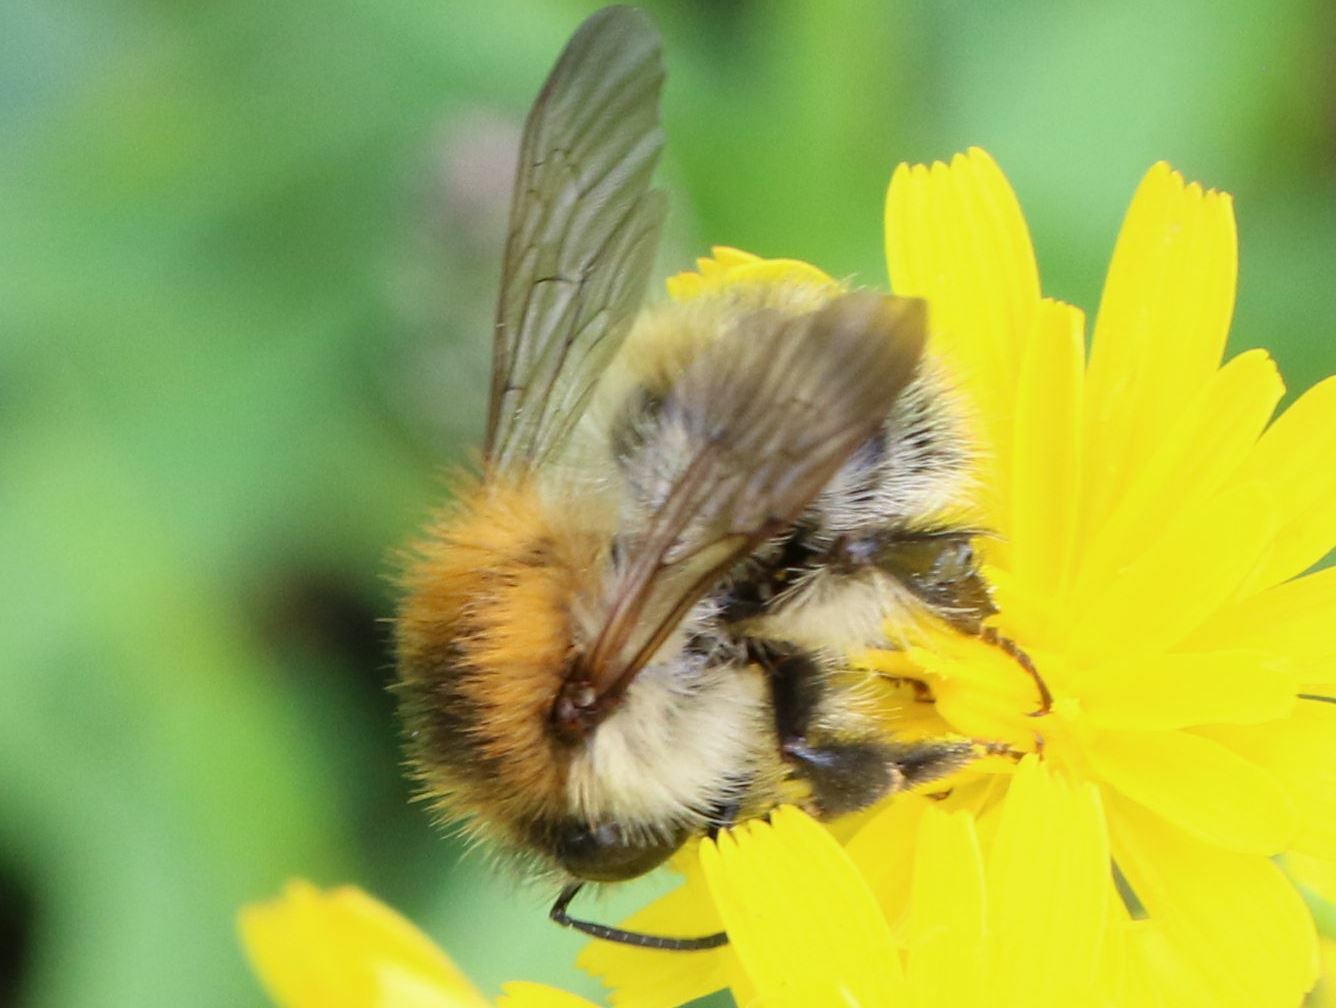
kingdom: Animalia
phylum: Arthropoda
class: Insecta
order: Hymenoptera
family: Apidae
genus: Bombus
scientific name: Bombus pascuorum
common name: Common carder bee
